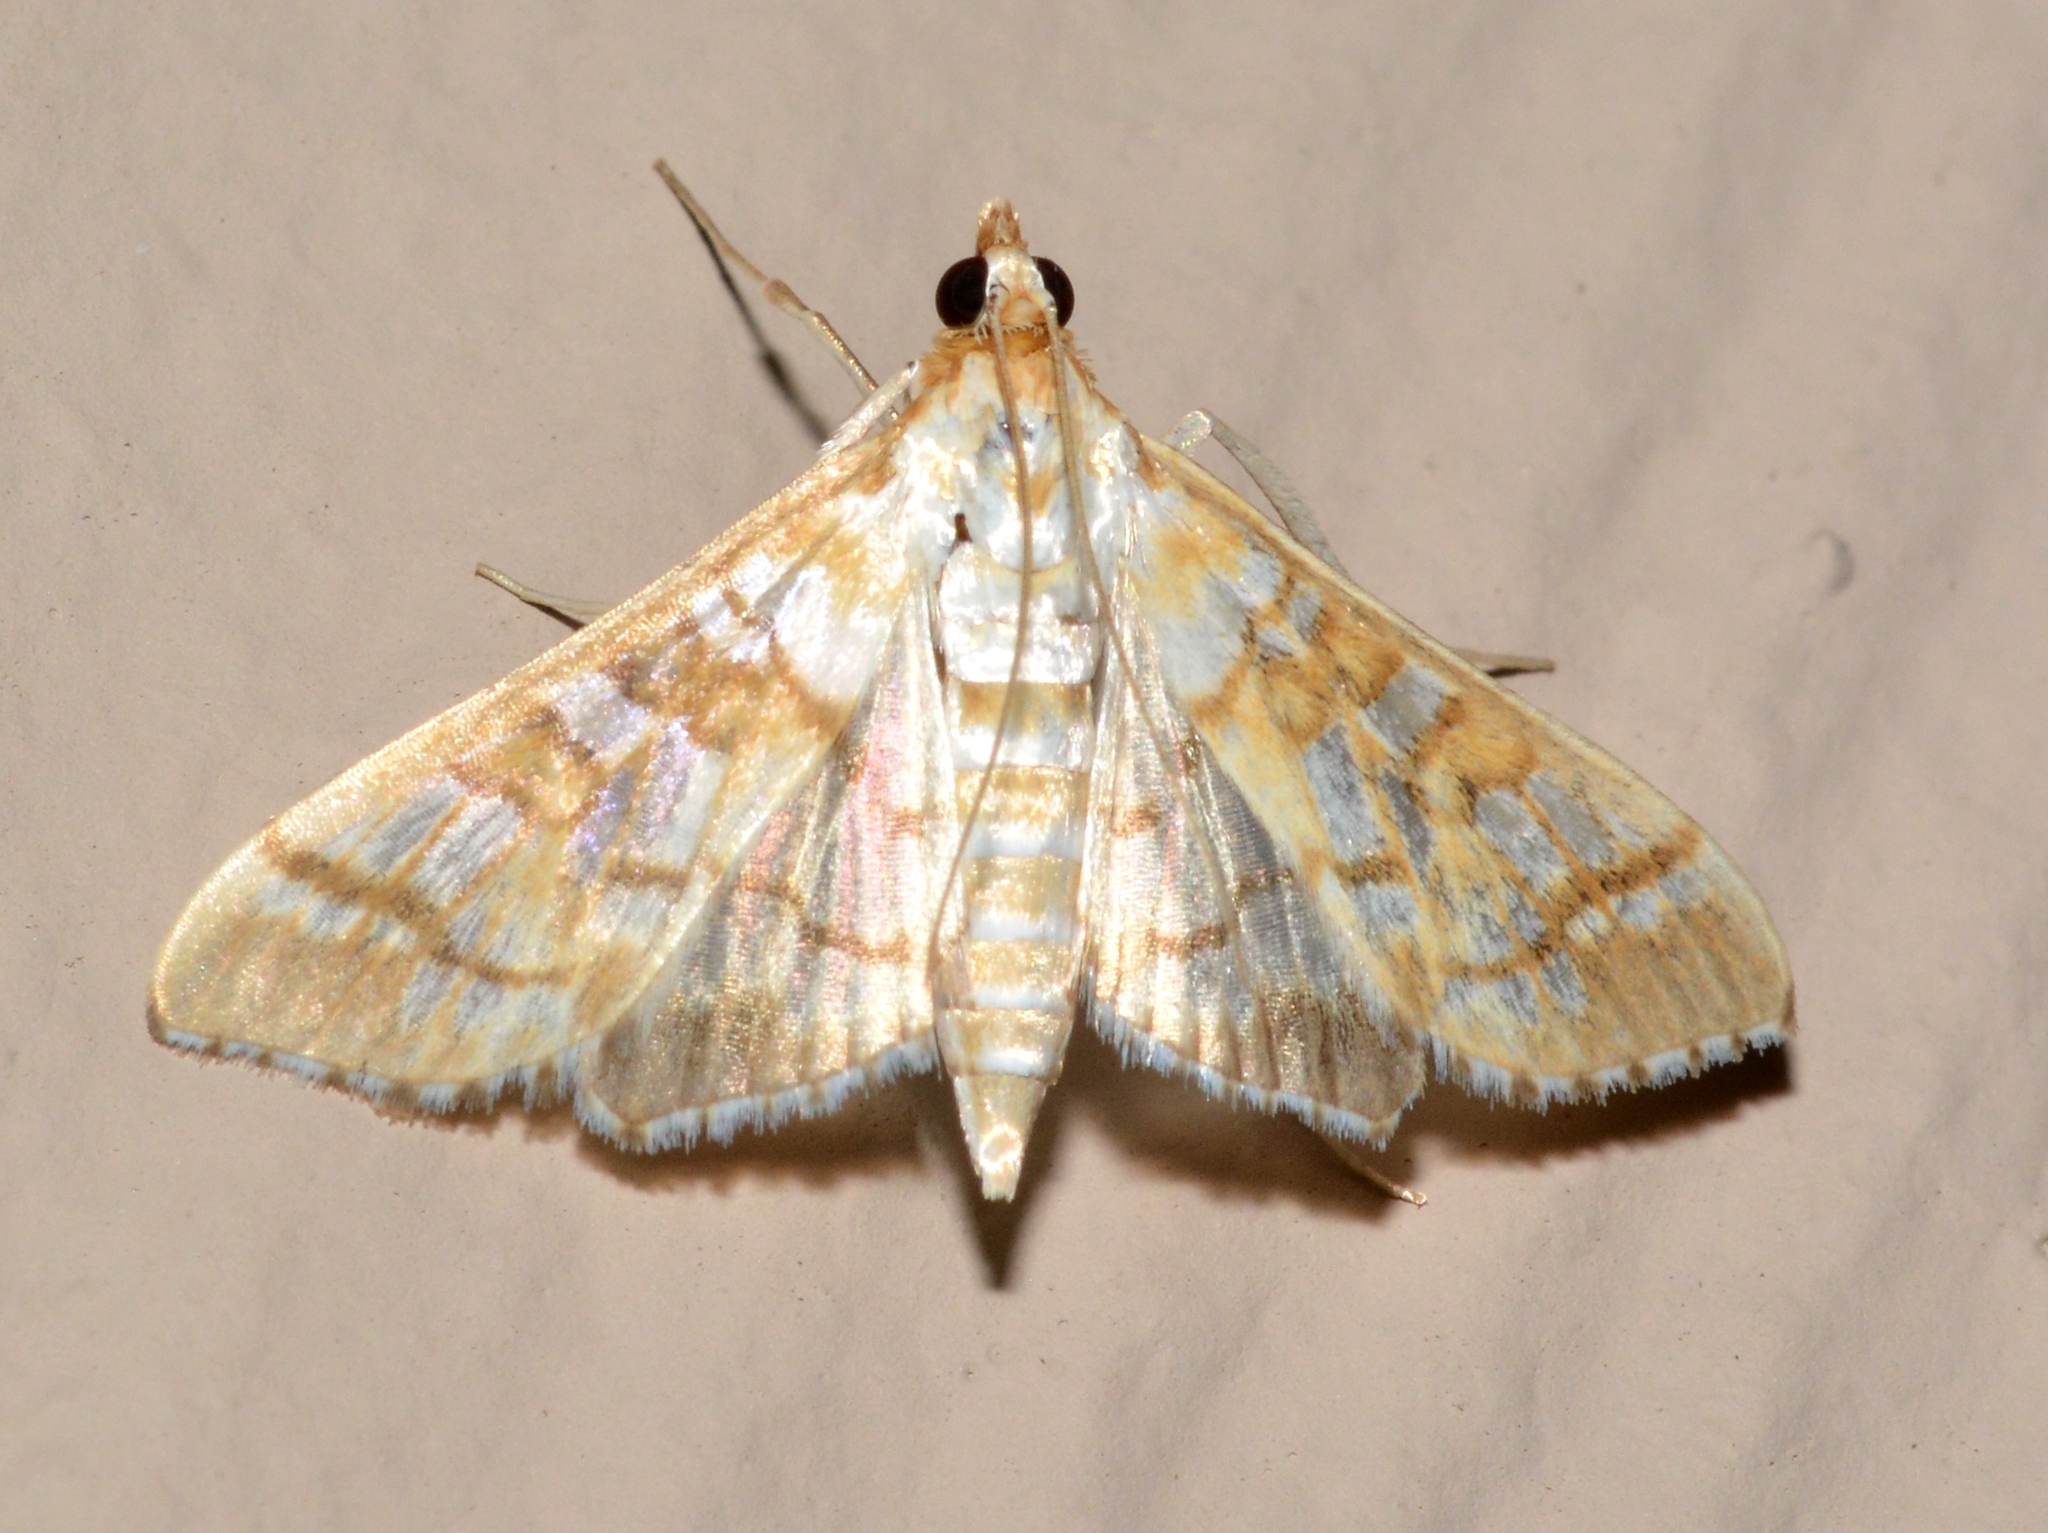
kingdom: Animalia
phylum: Arthropoda
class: Insecta
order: Lepidoptera
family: Crambidae
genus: Epipagis
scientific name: Epipagis fenestralis
